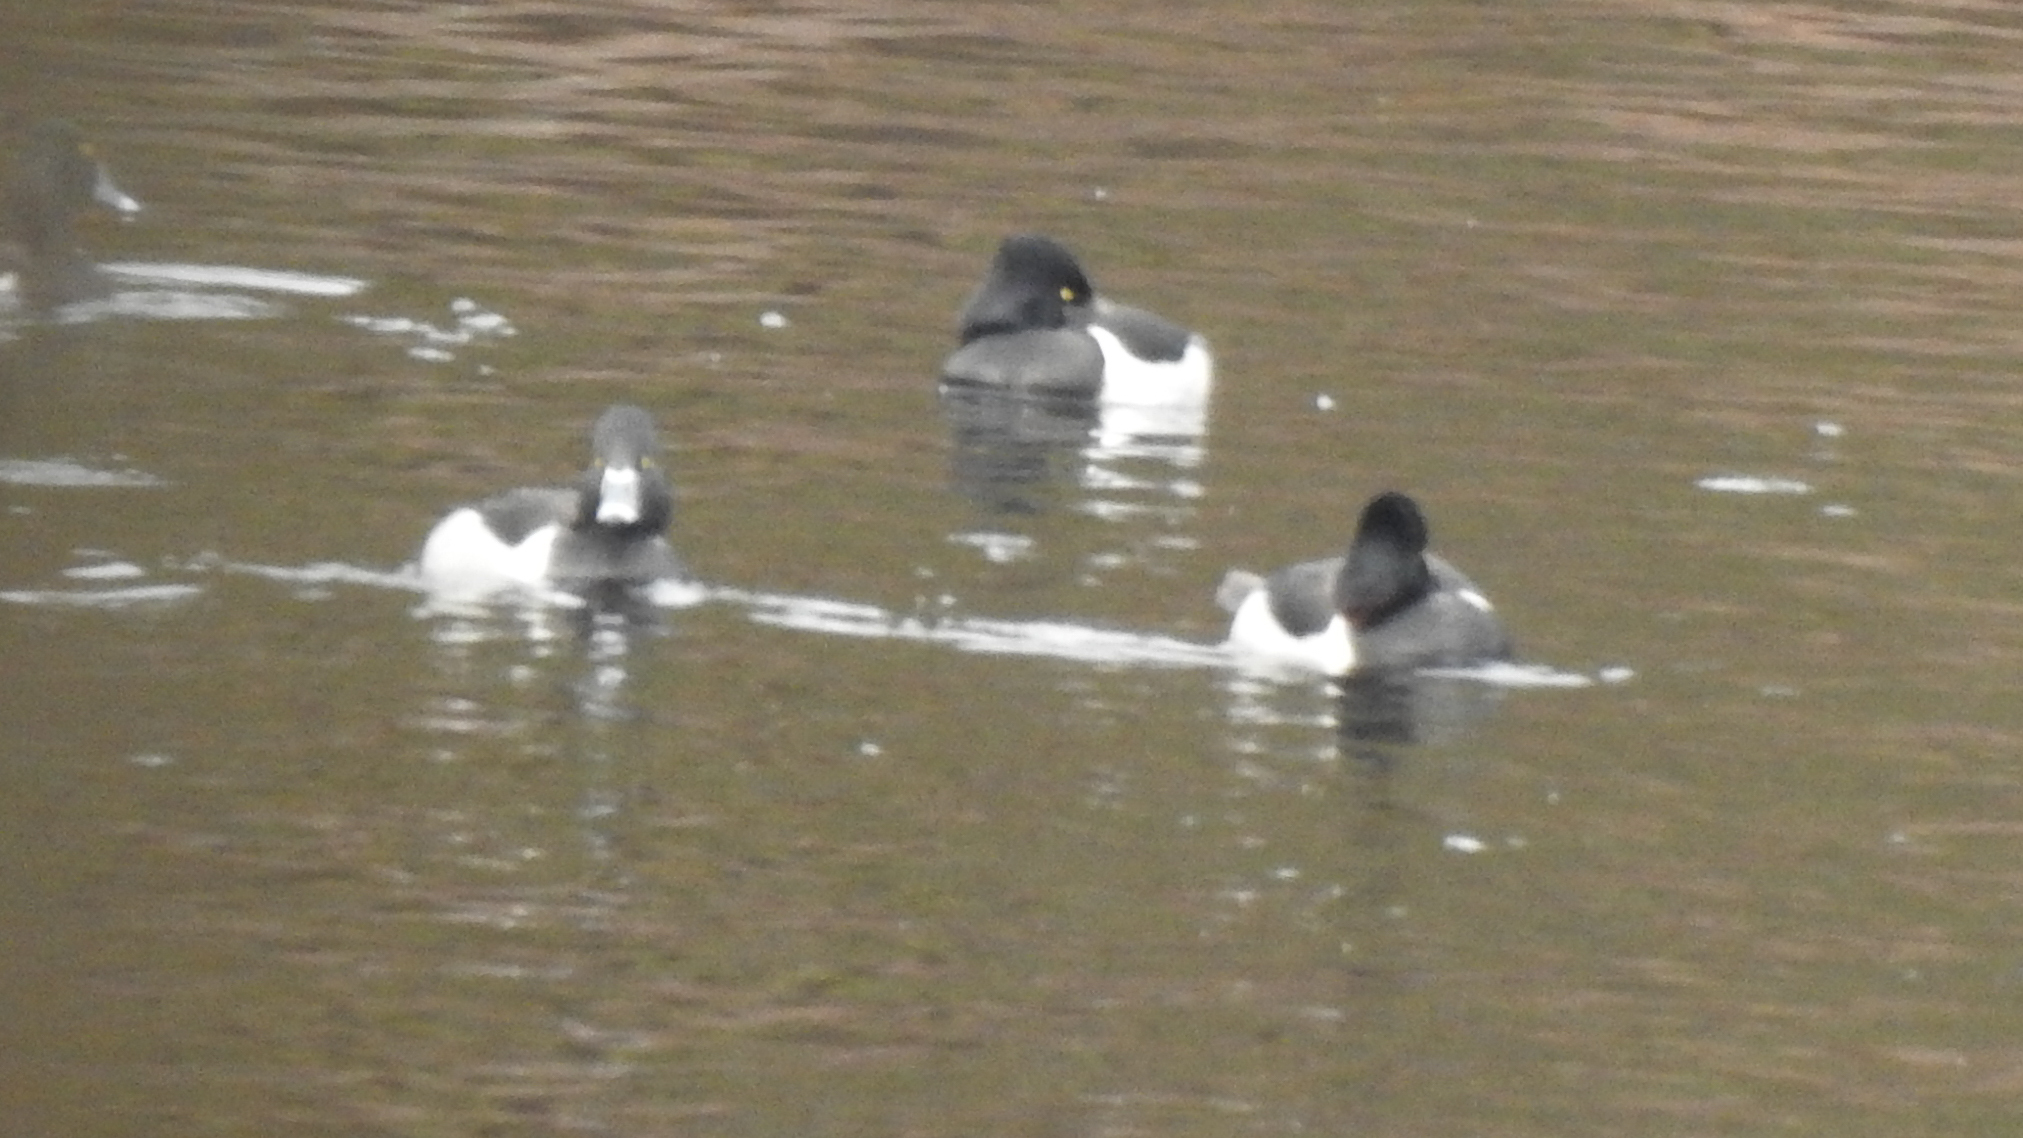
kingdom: Animalia
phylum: Chordata
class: Aves
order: Anseriformes
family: Anatidae
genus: Aythya
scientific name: Aythya collaris
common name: Ring-necked duck
